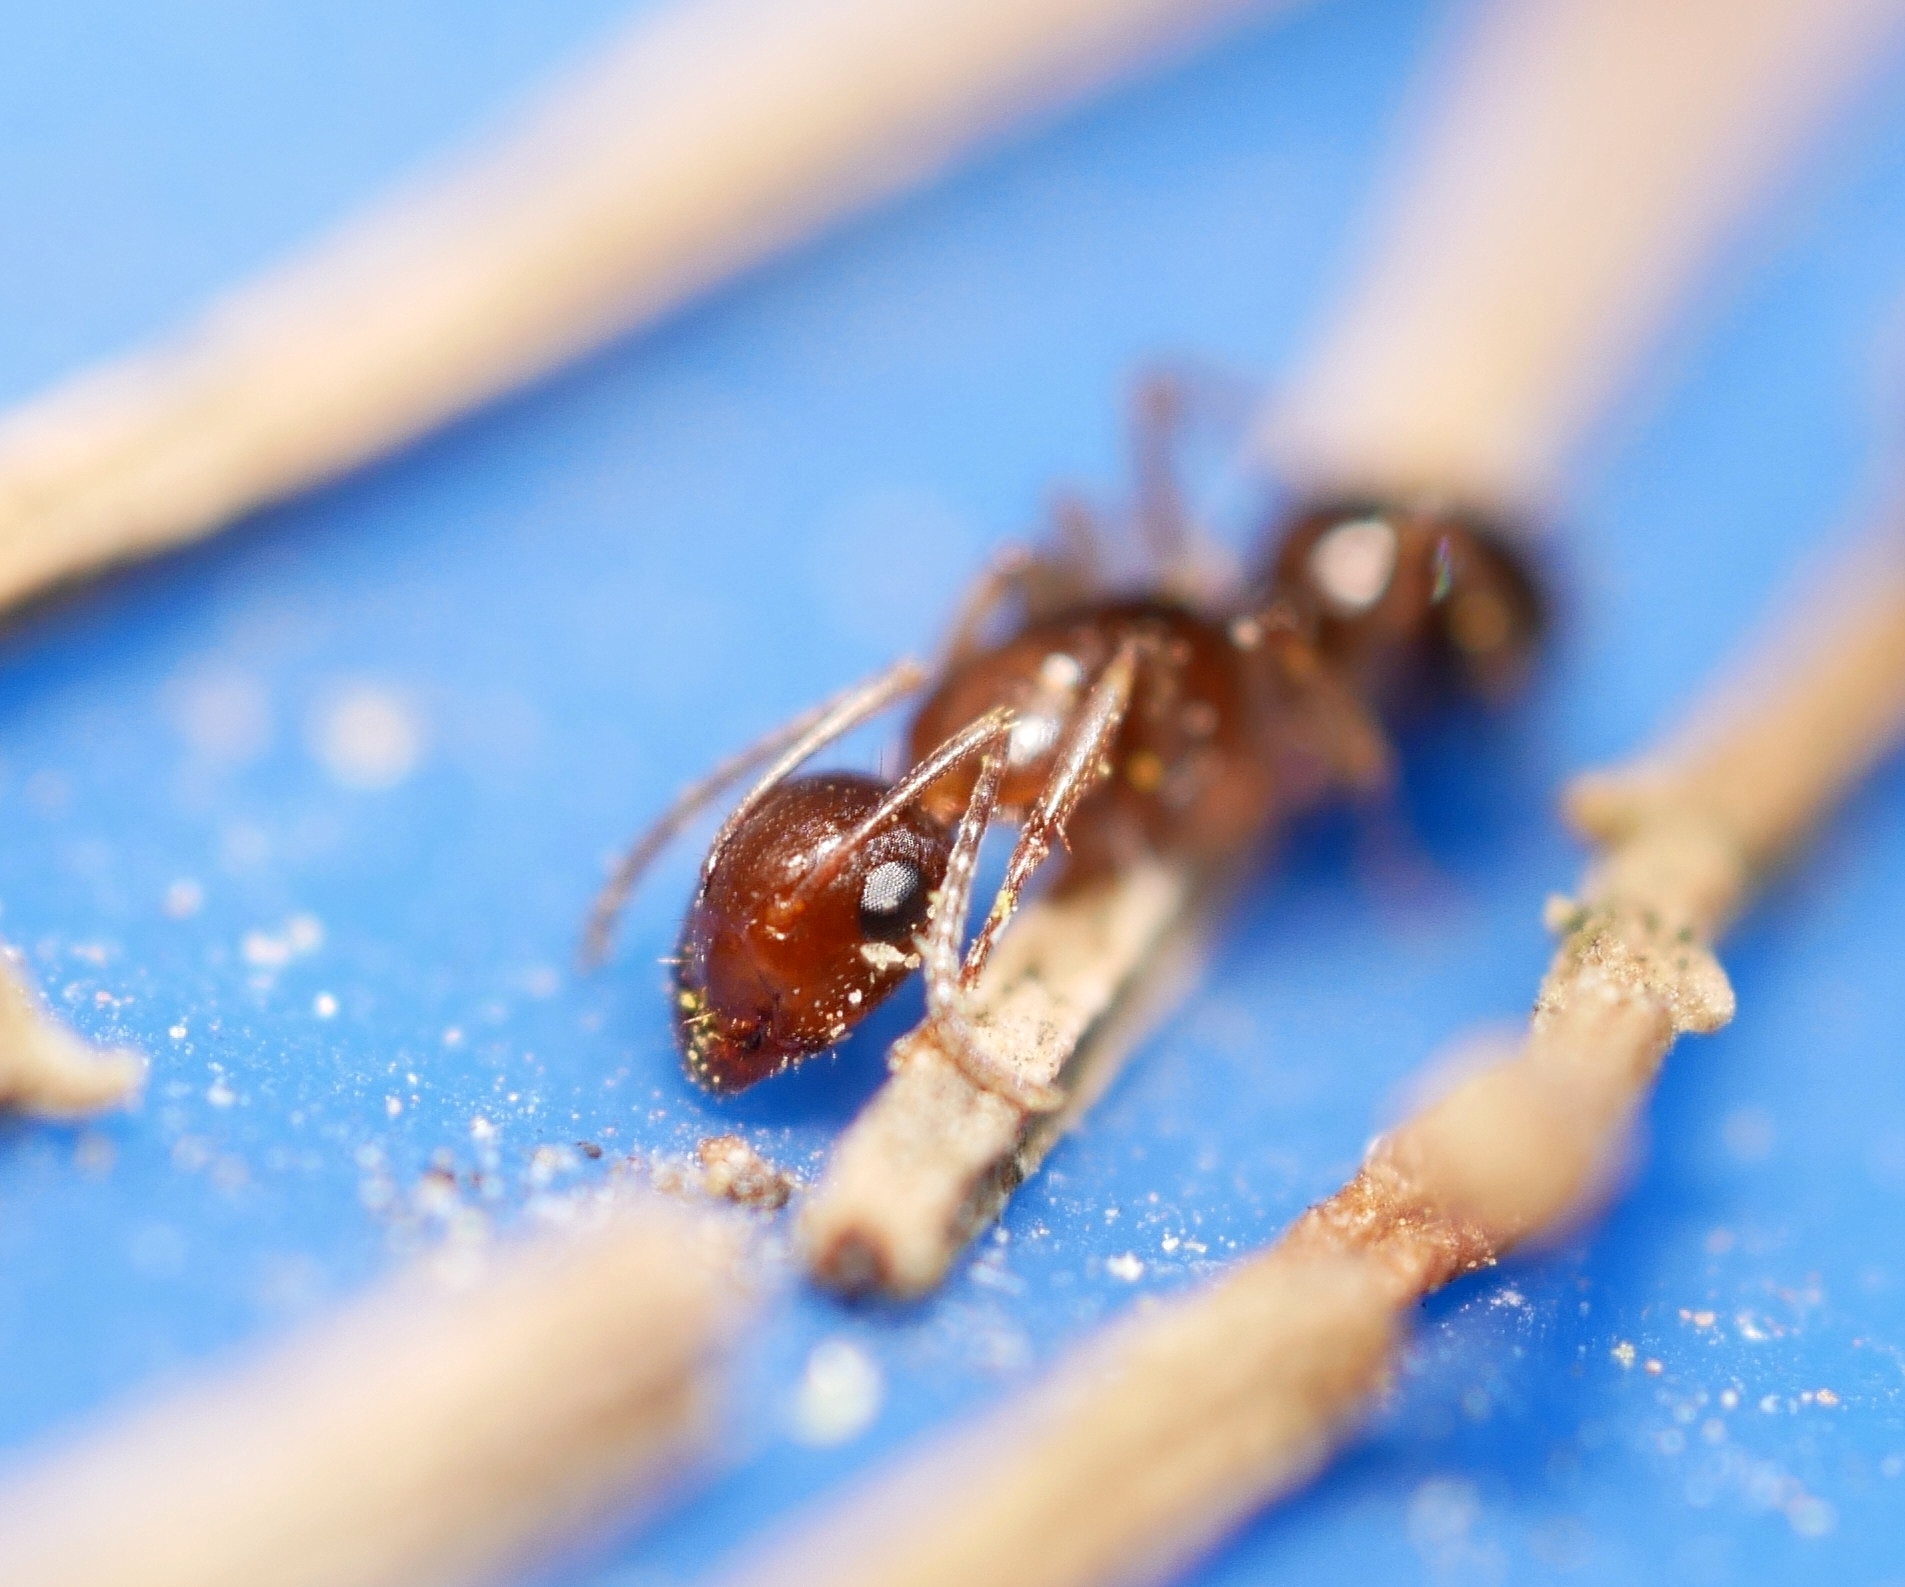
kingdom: Animalia
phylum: Arthropoda
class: Insecta
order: Hymenoptera
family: Formicidae
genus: Camponotus
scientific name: Camponotus yogi
